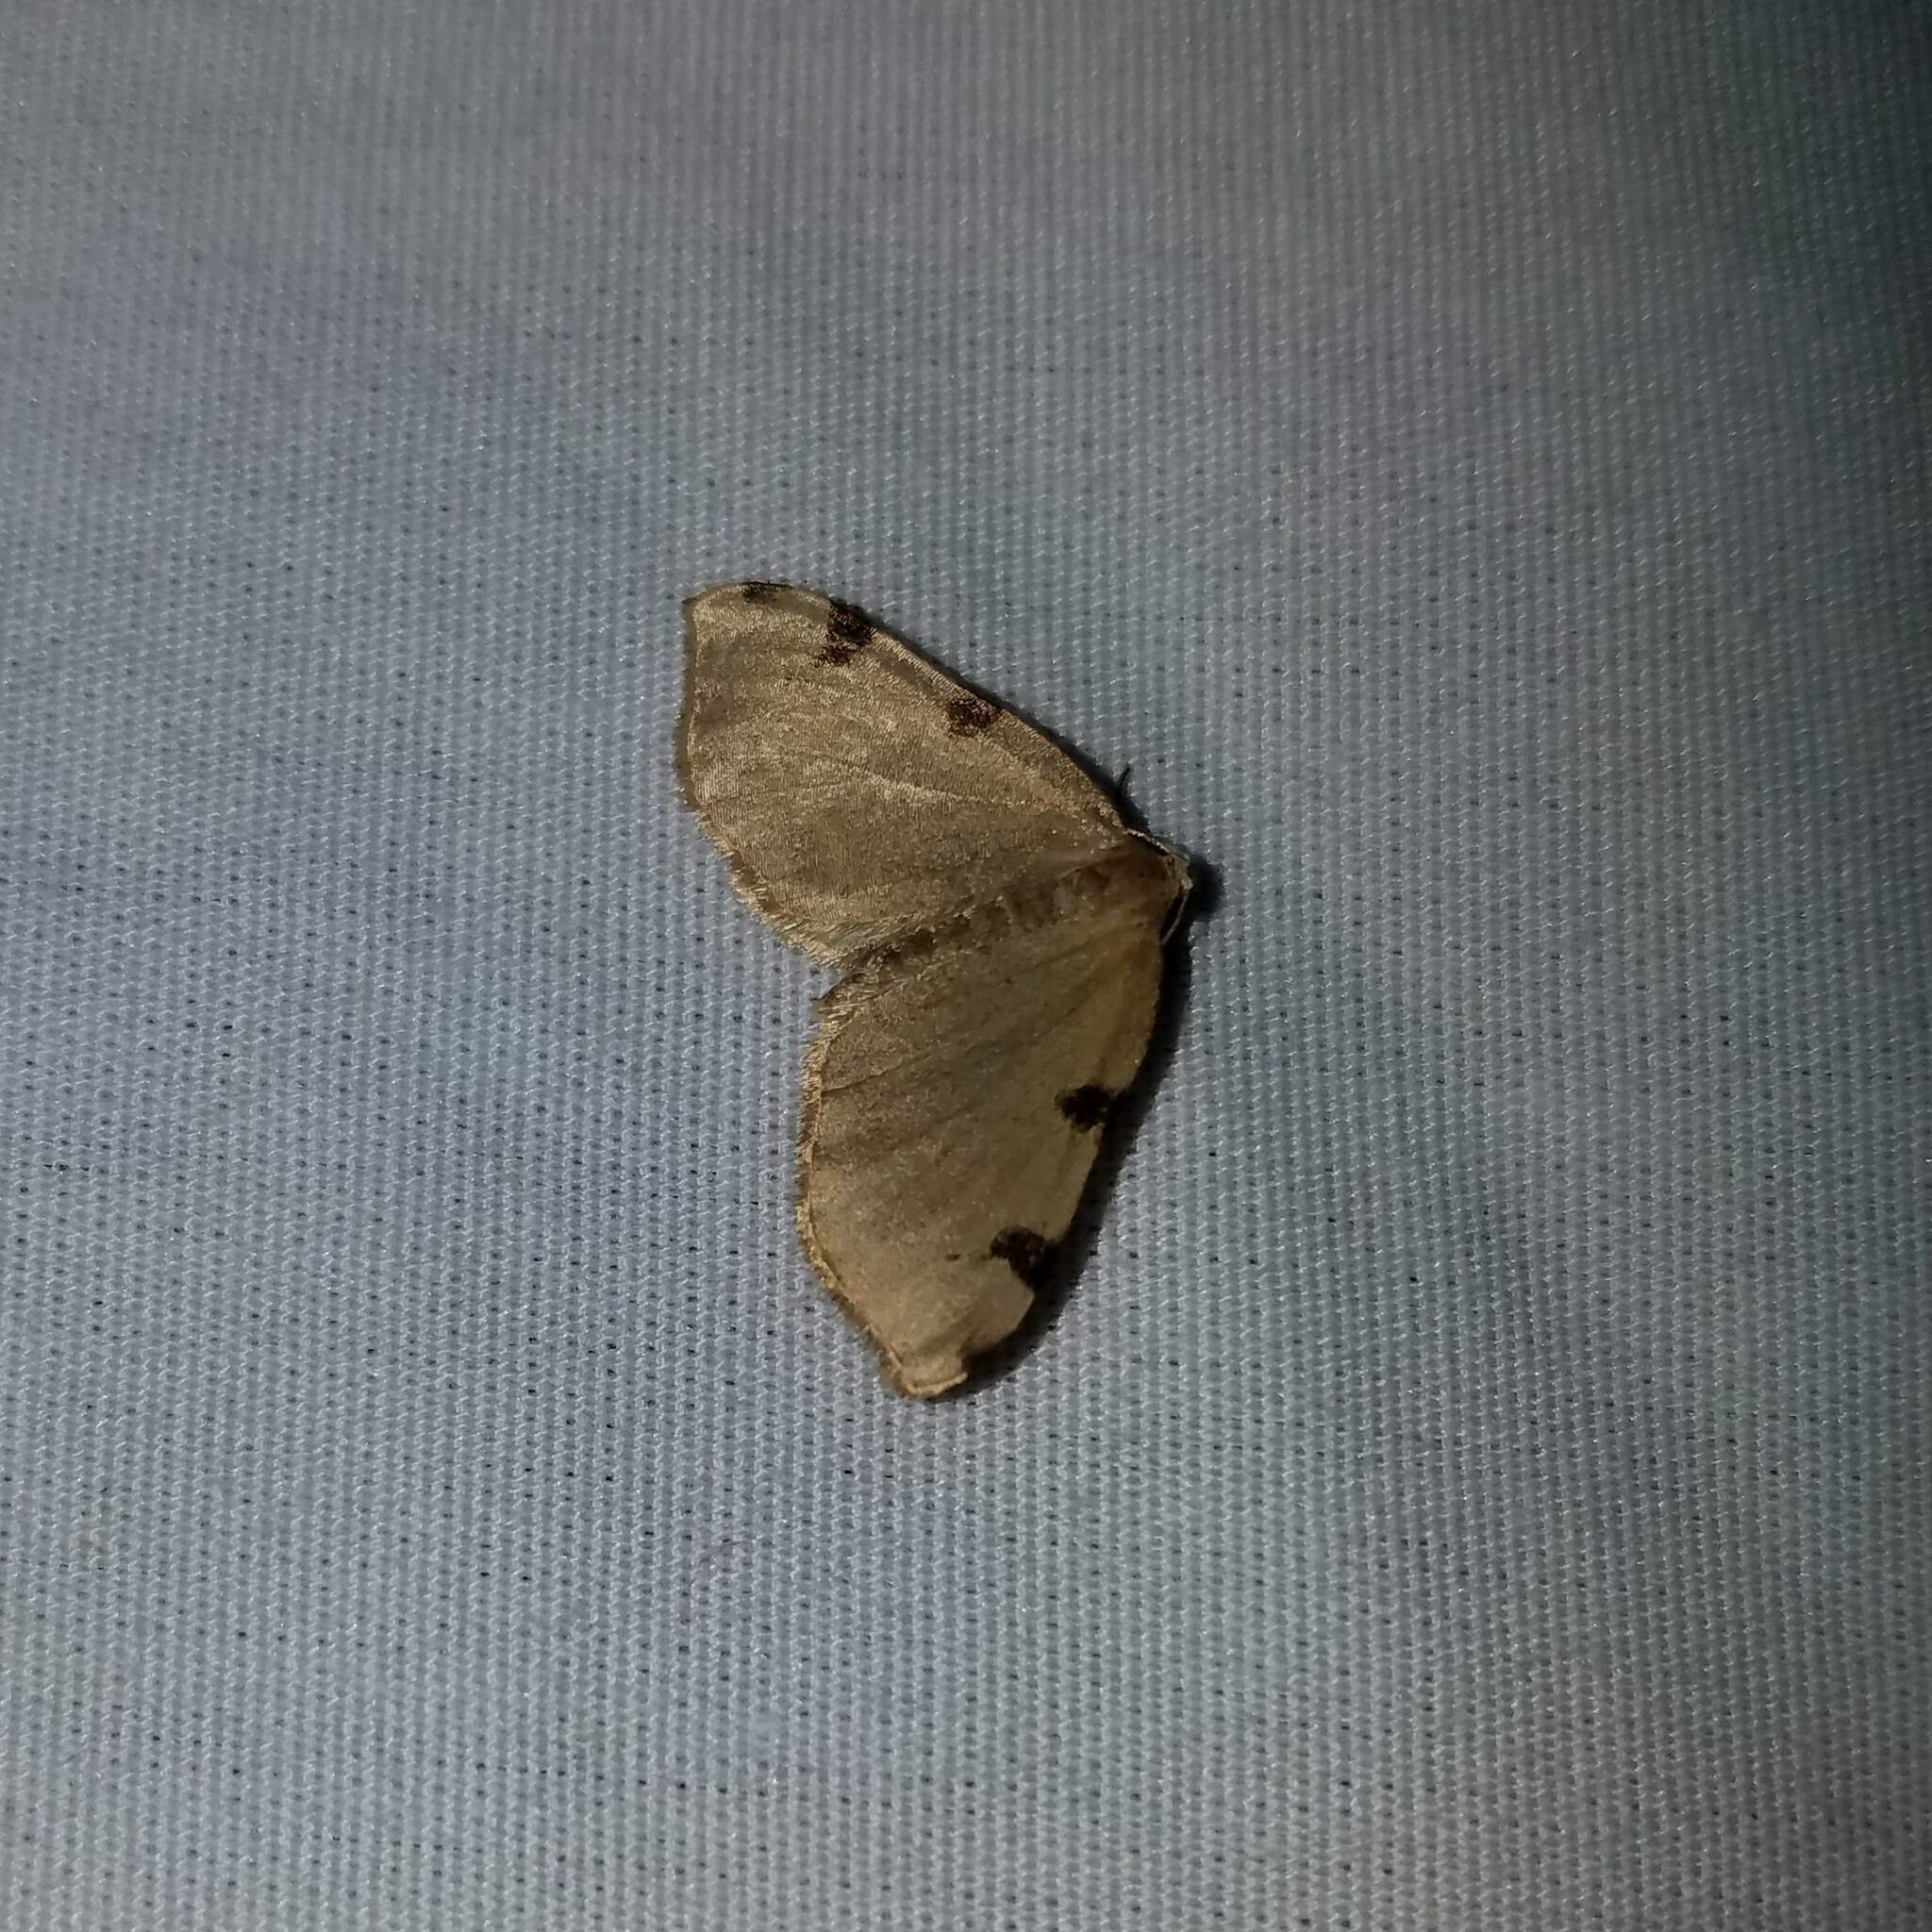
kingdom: Animalia
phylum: Arthropoda
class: Insecta
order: Lepidoptera
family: Geometridae
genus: Heterophleps
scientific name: Heterophleps triguttaria
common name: Three-spotted fillip
